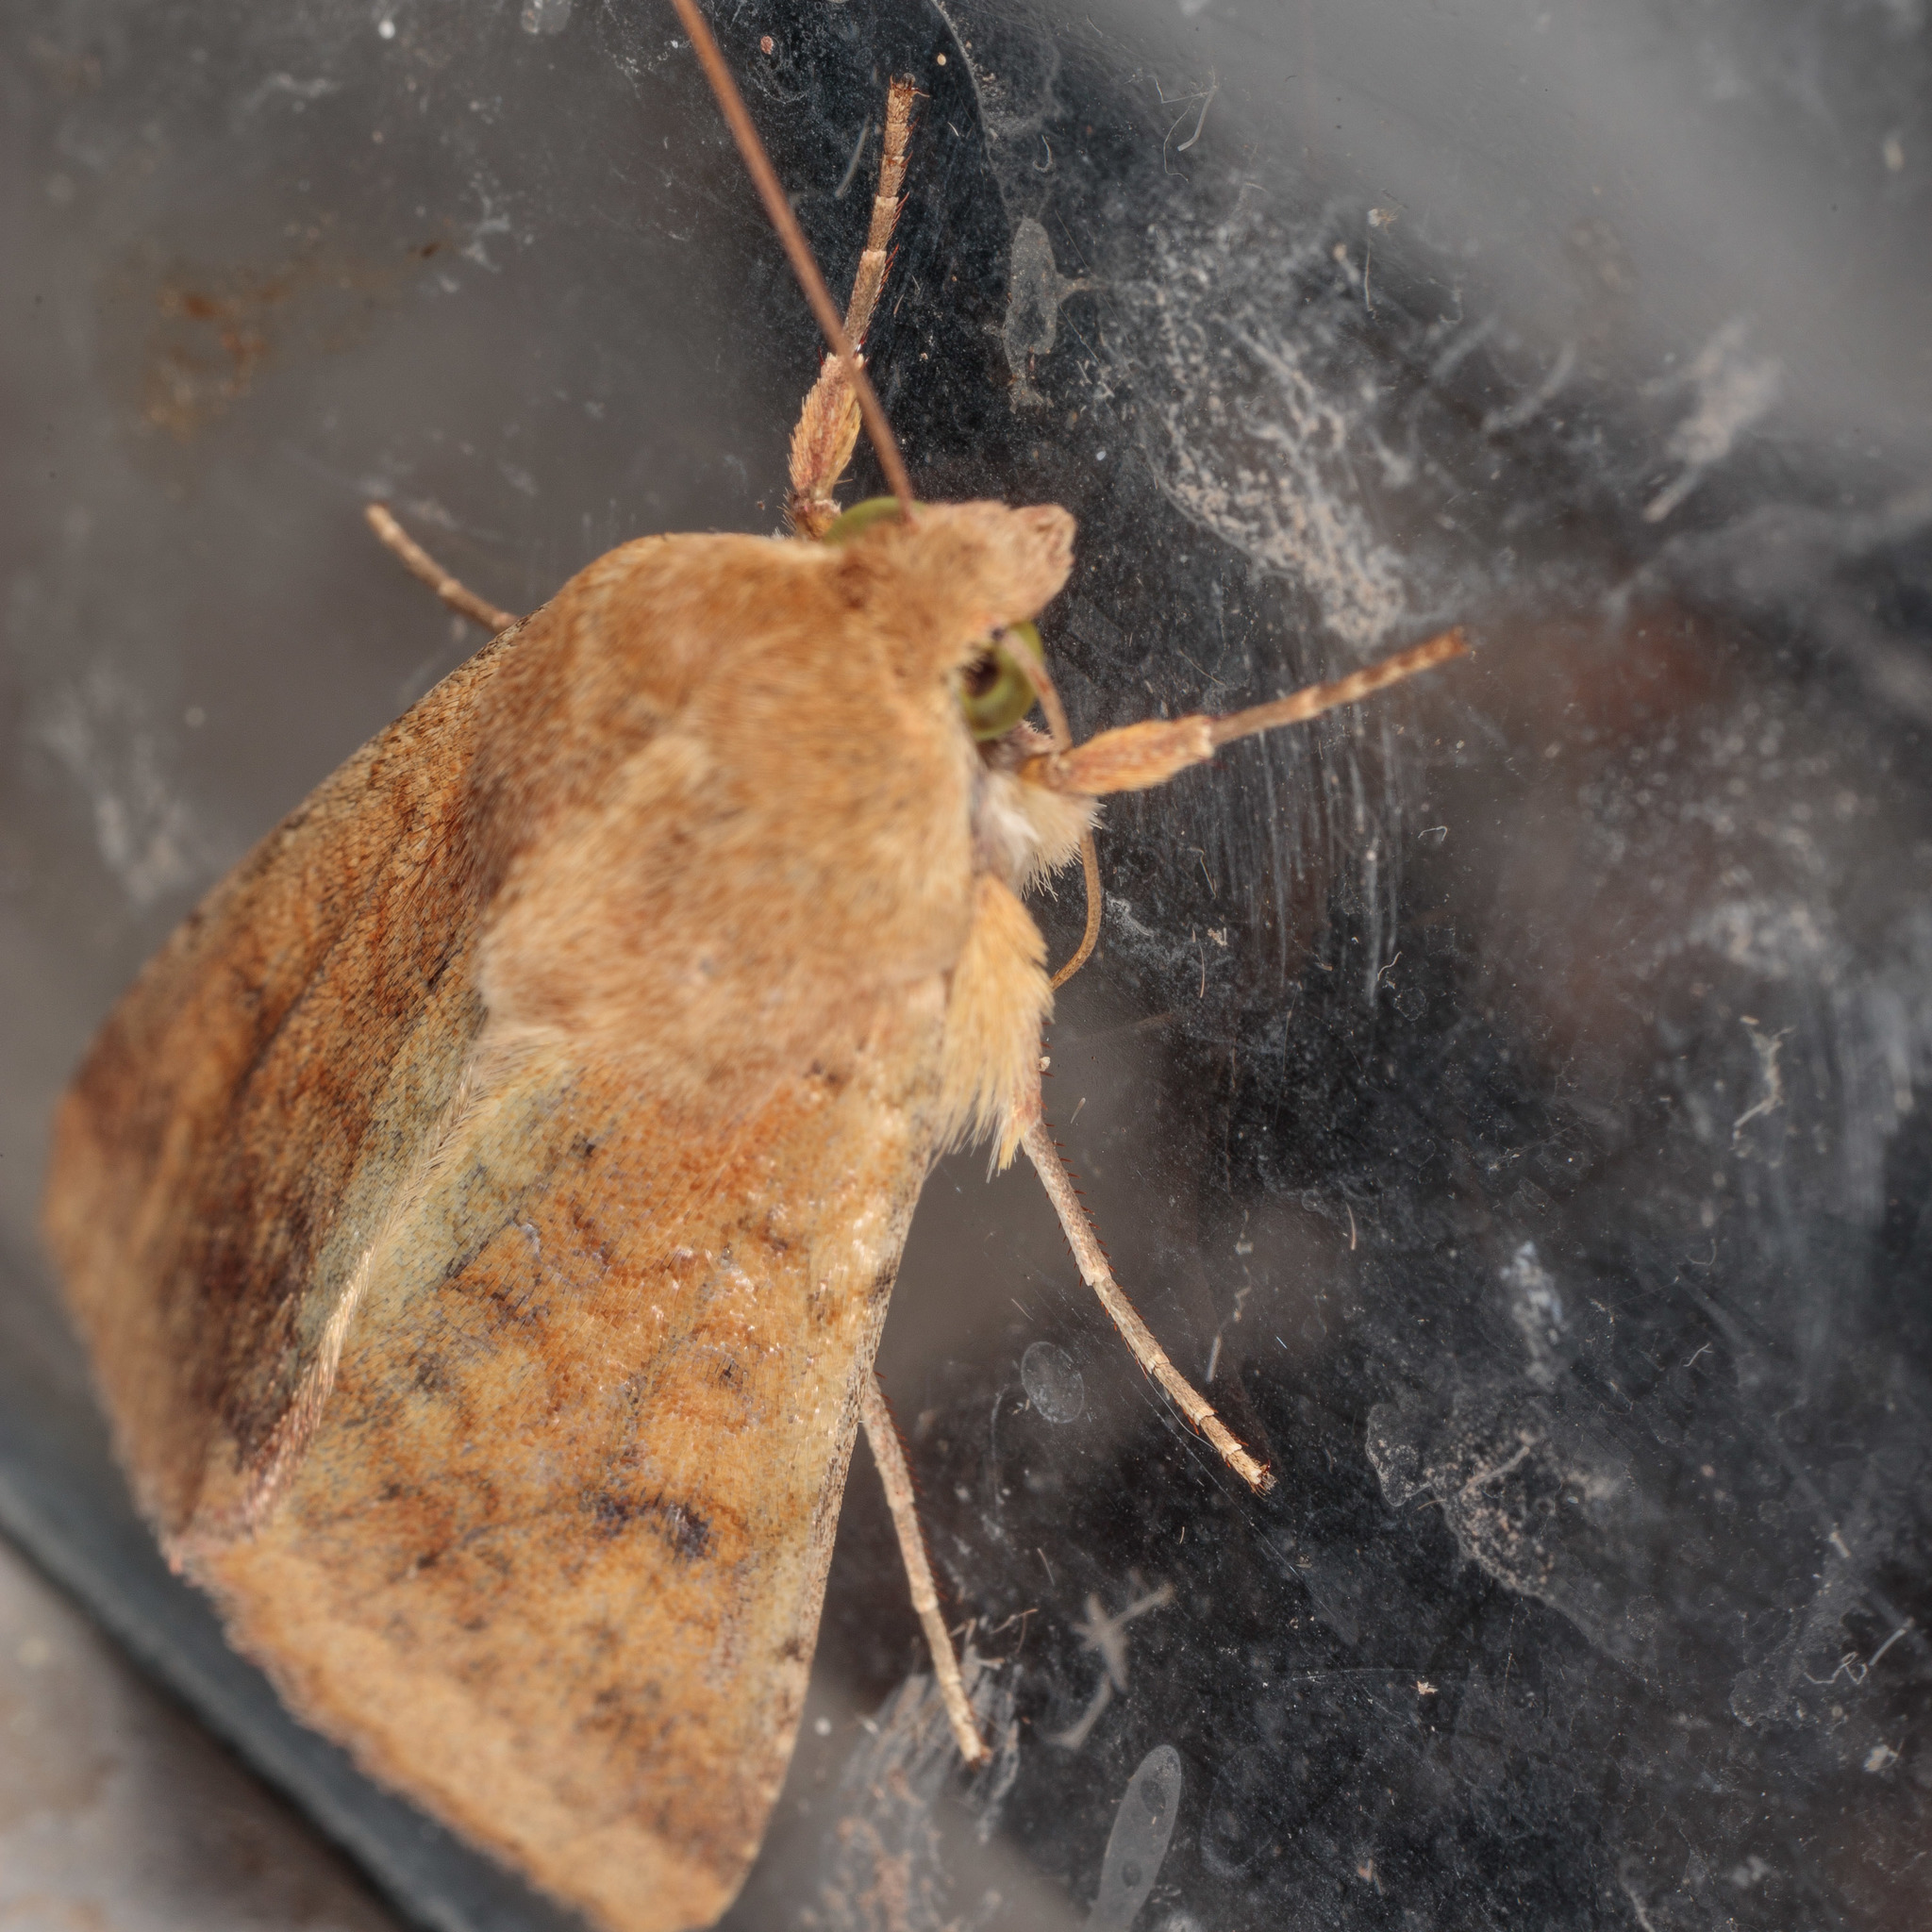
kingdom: Animalia
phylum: Arthropoda
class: Insecta
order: Lepidoptera
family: Noctuidae
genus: Helicoverpa
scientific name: Helicoverpa zea
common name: Bollworm
